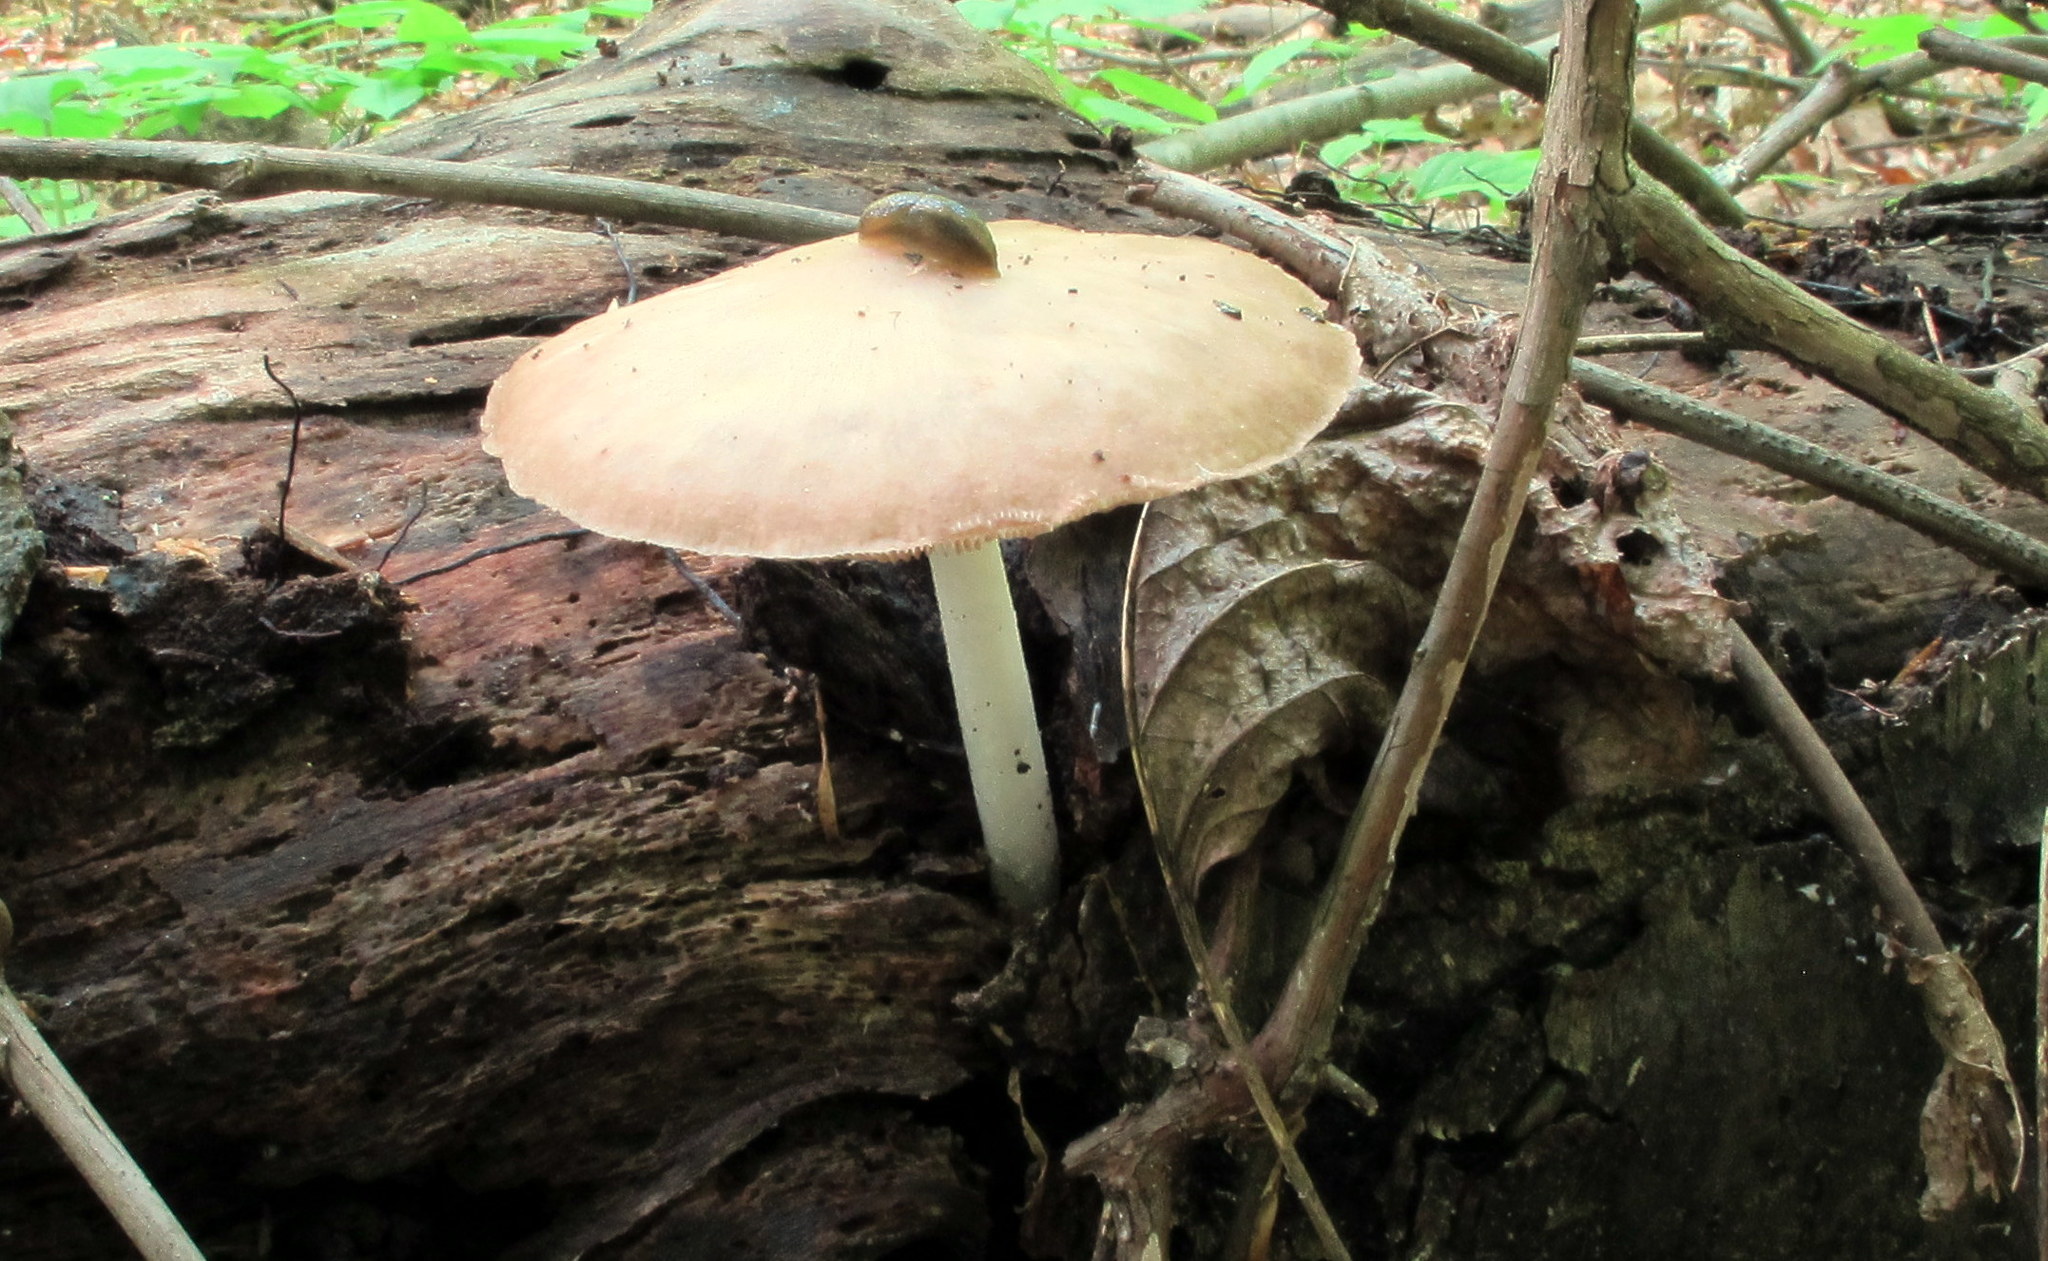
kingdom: Fungi
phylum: Basidiomycota
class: Agaricomycetes
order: Agaricales
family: Pluteaceae
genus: Pluteus
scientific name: Pluteus cervinus
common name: Deer shield
